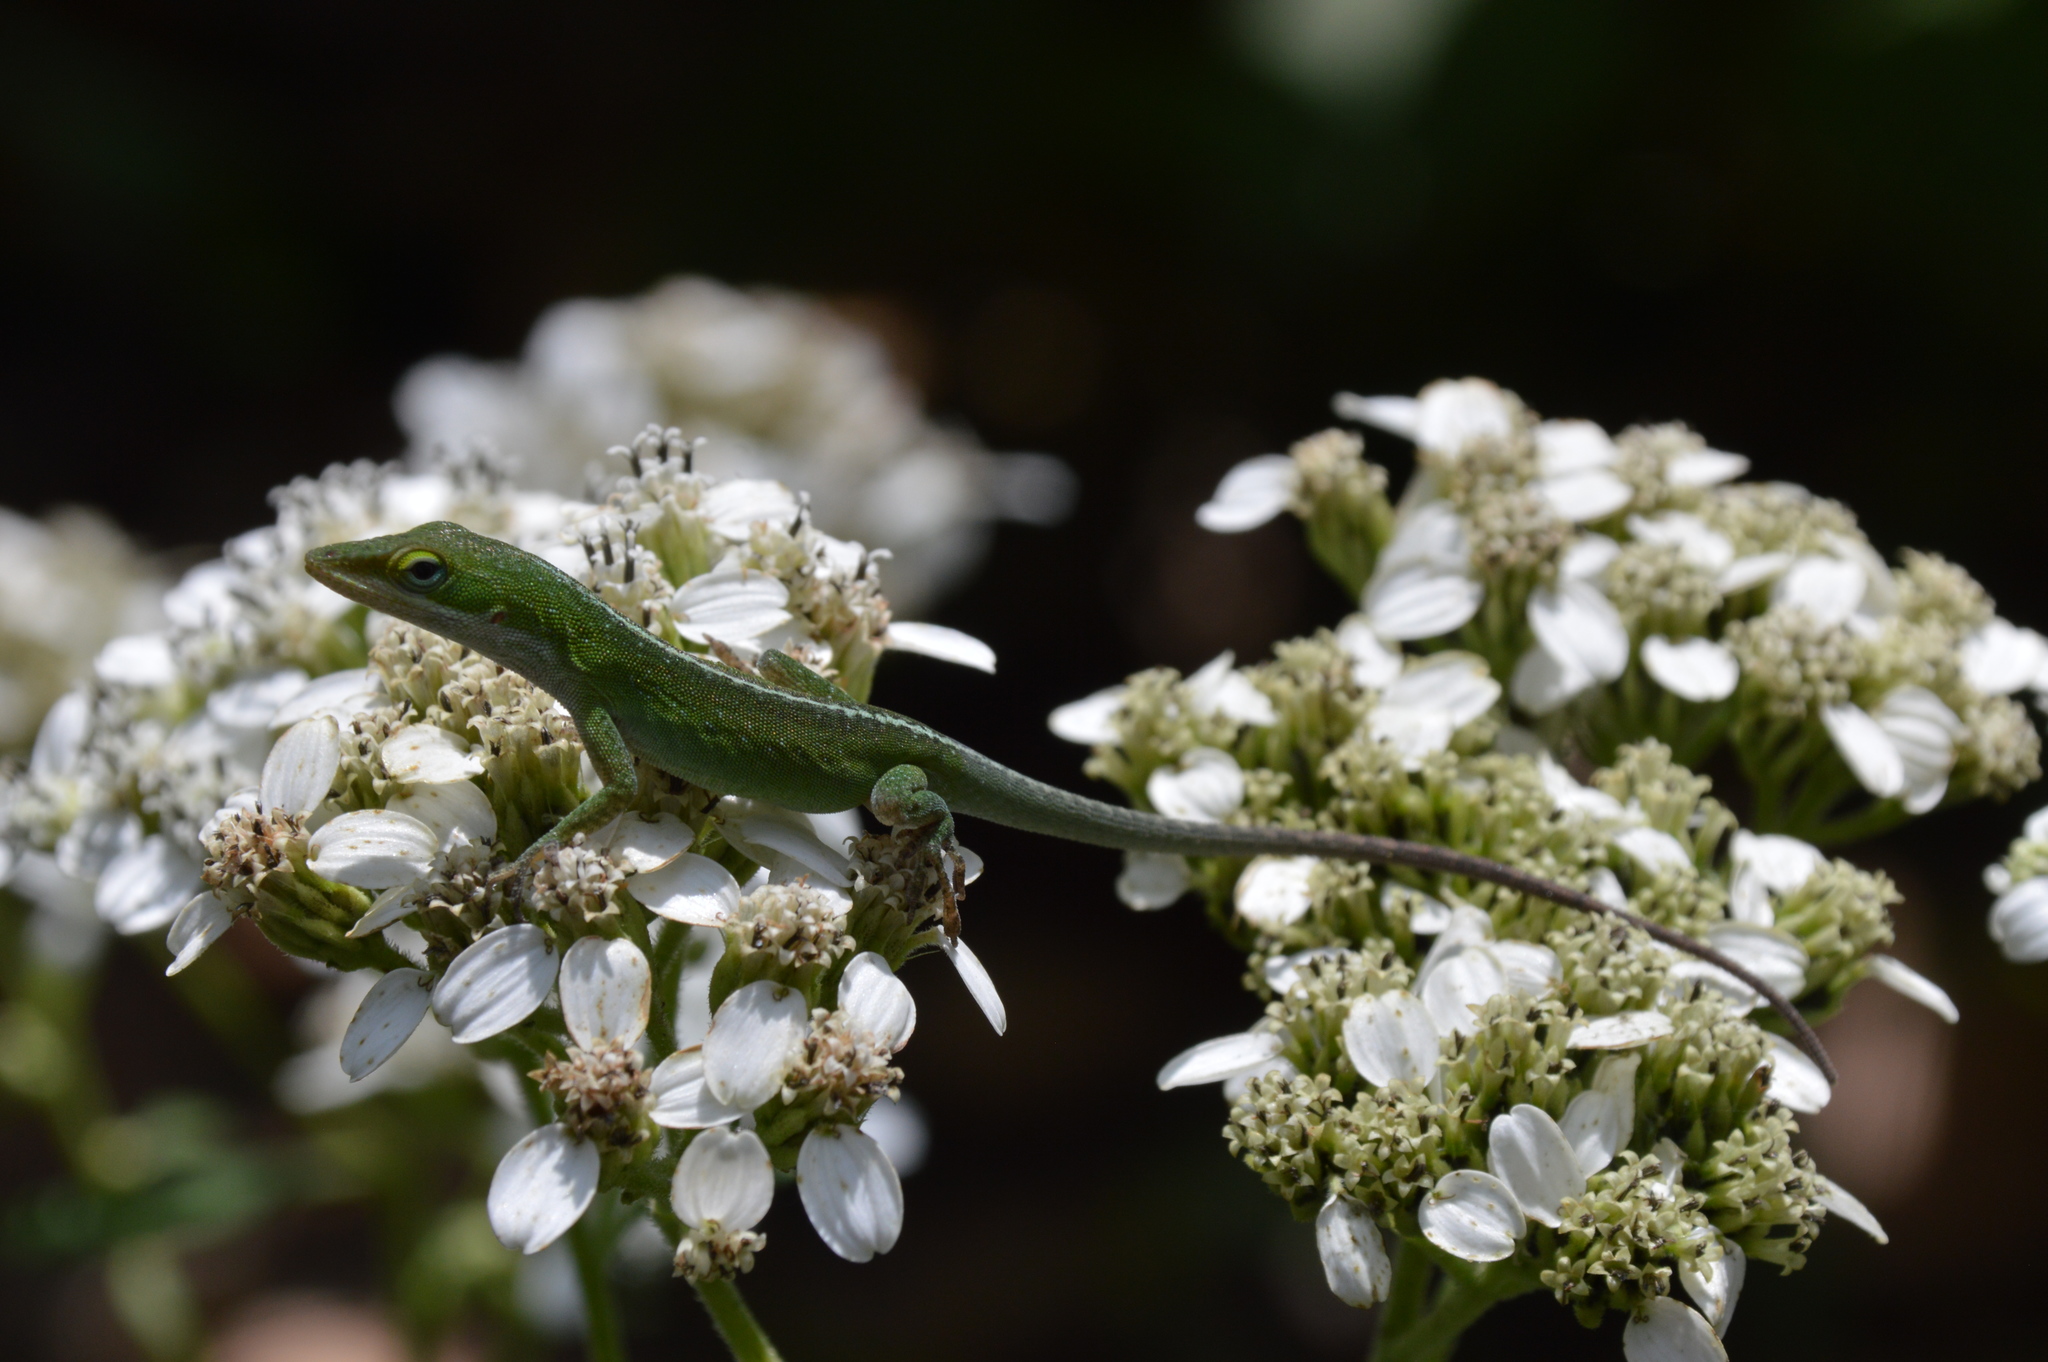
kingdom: Animalia
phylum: Chordata
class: Squamata
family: Dactyloidae
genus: Anolis
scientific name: Anolis carolinensis
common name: Green anole
